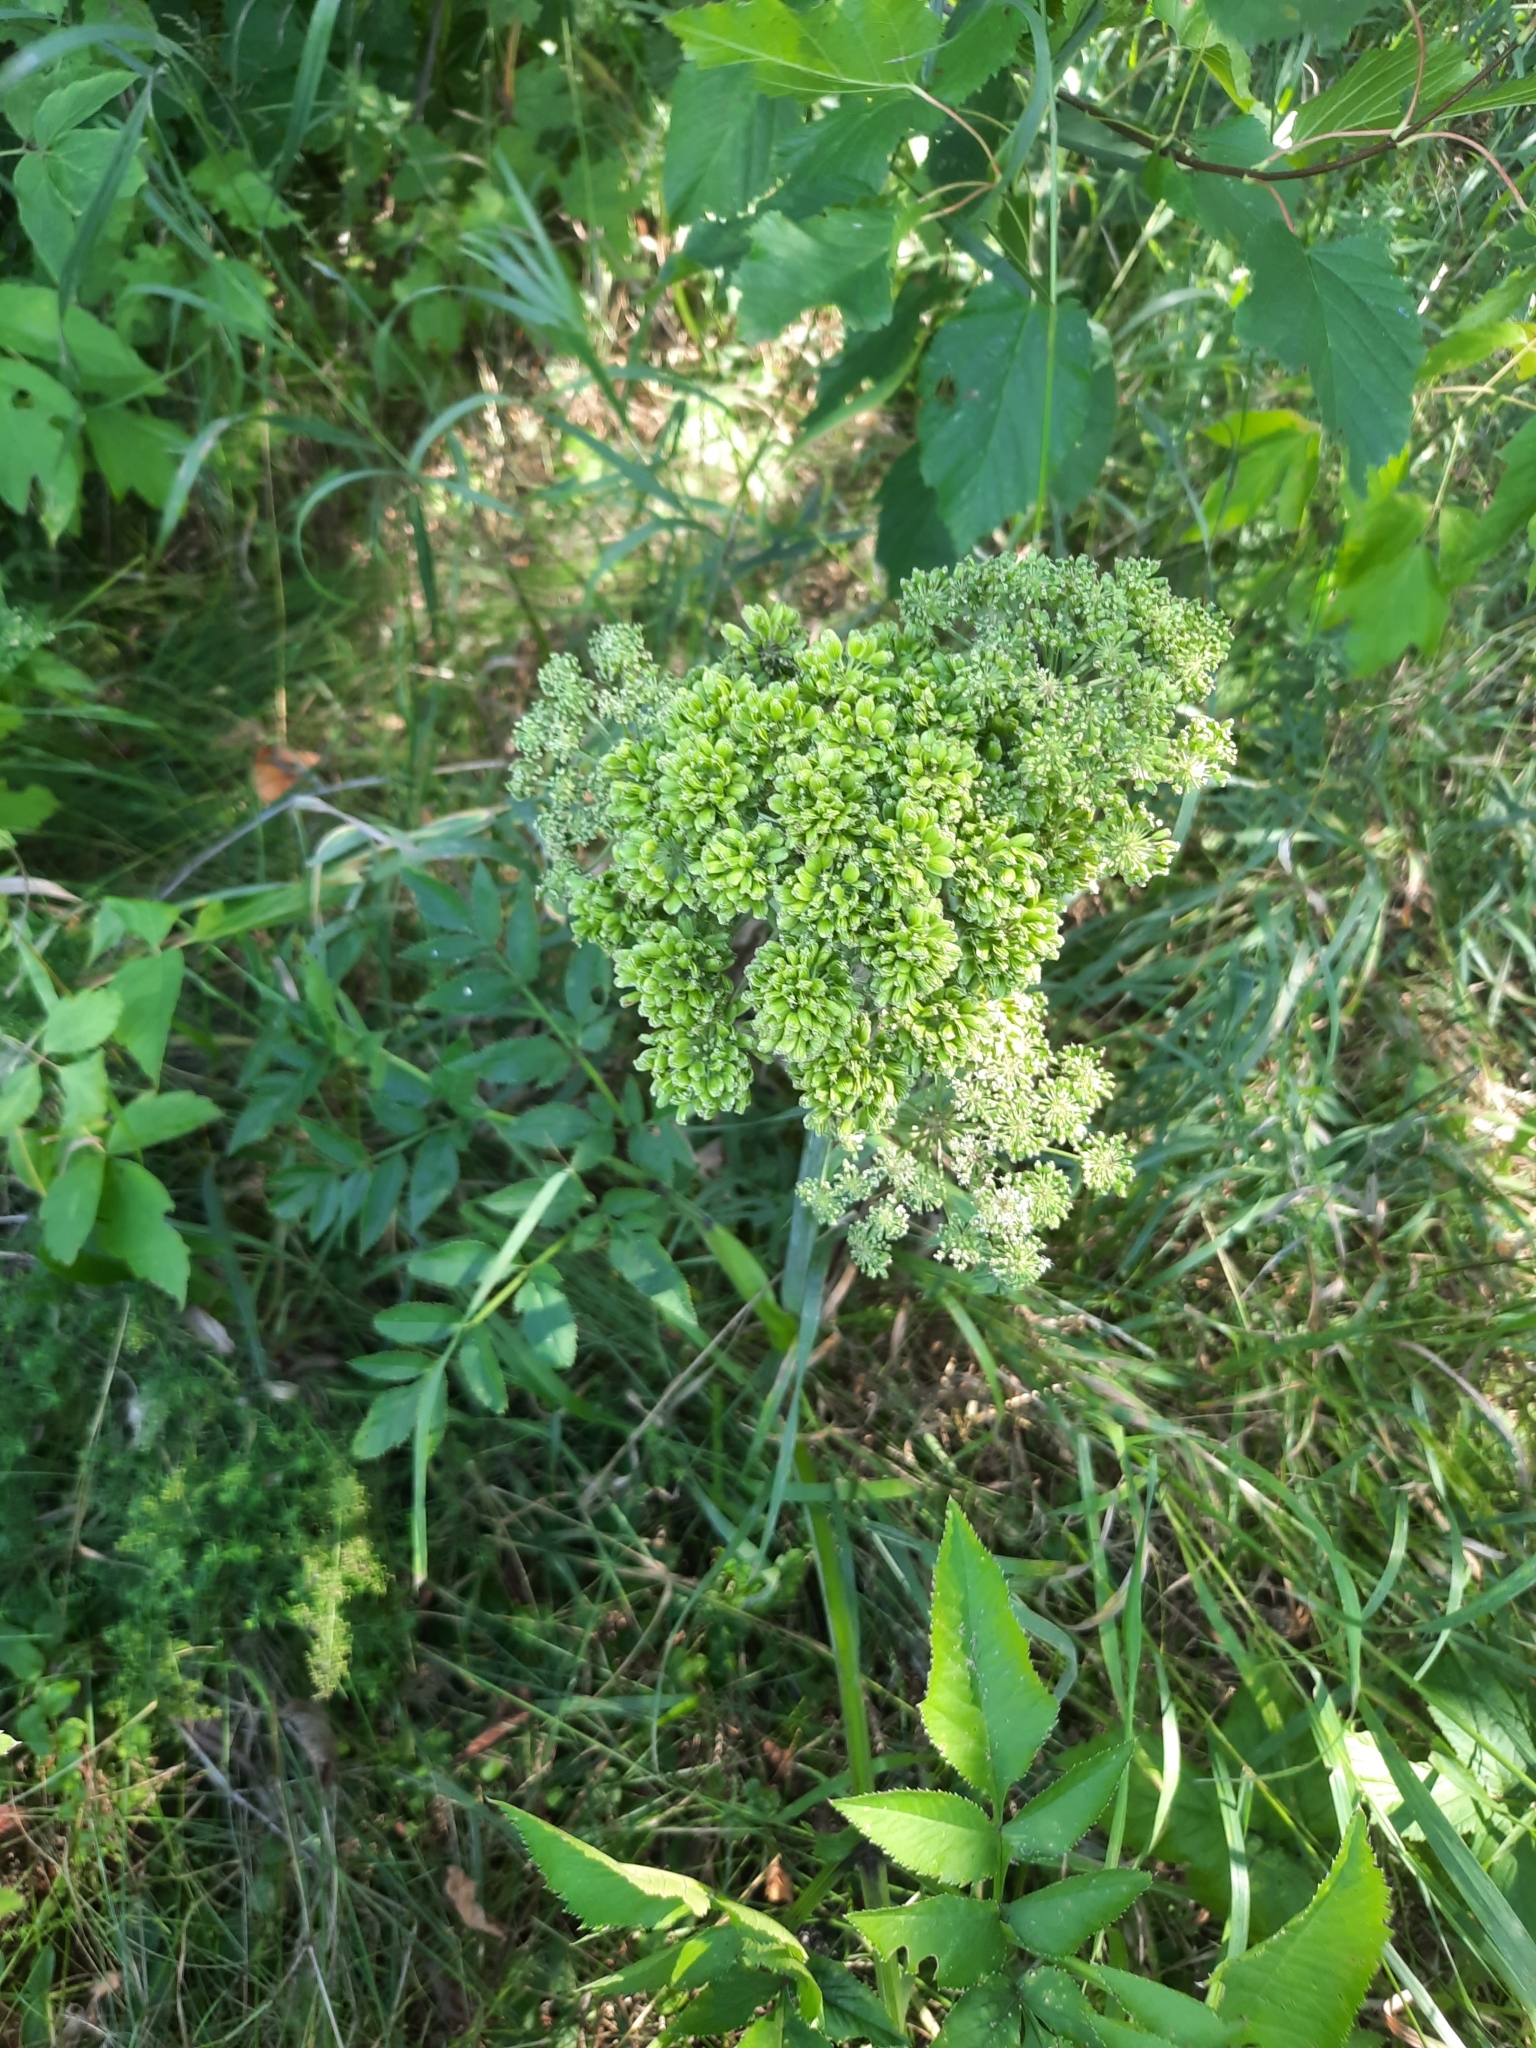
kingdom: Plantae
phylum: Tracheophyta
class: Magnoliopsida
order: Apiales
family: Apiaceae
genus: Angelica
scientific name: Angelica sylvestris
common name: Wild angelica
